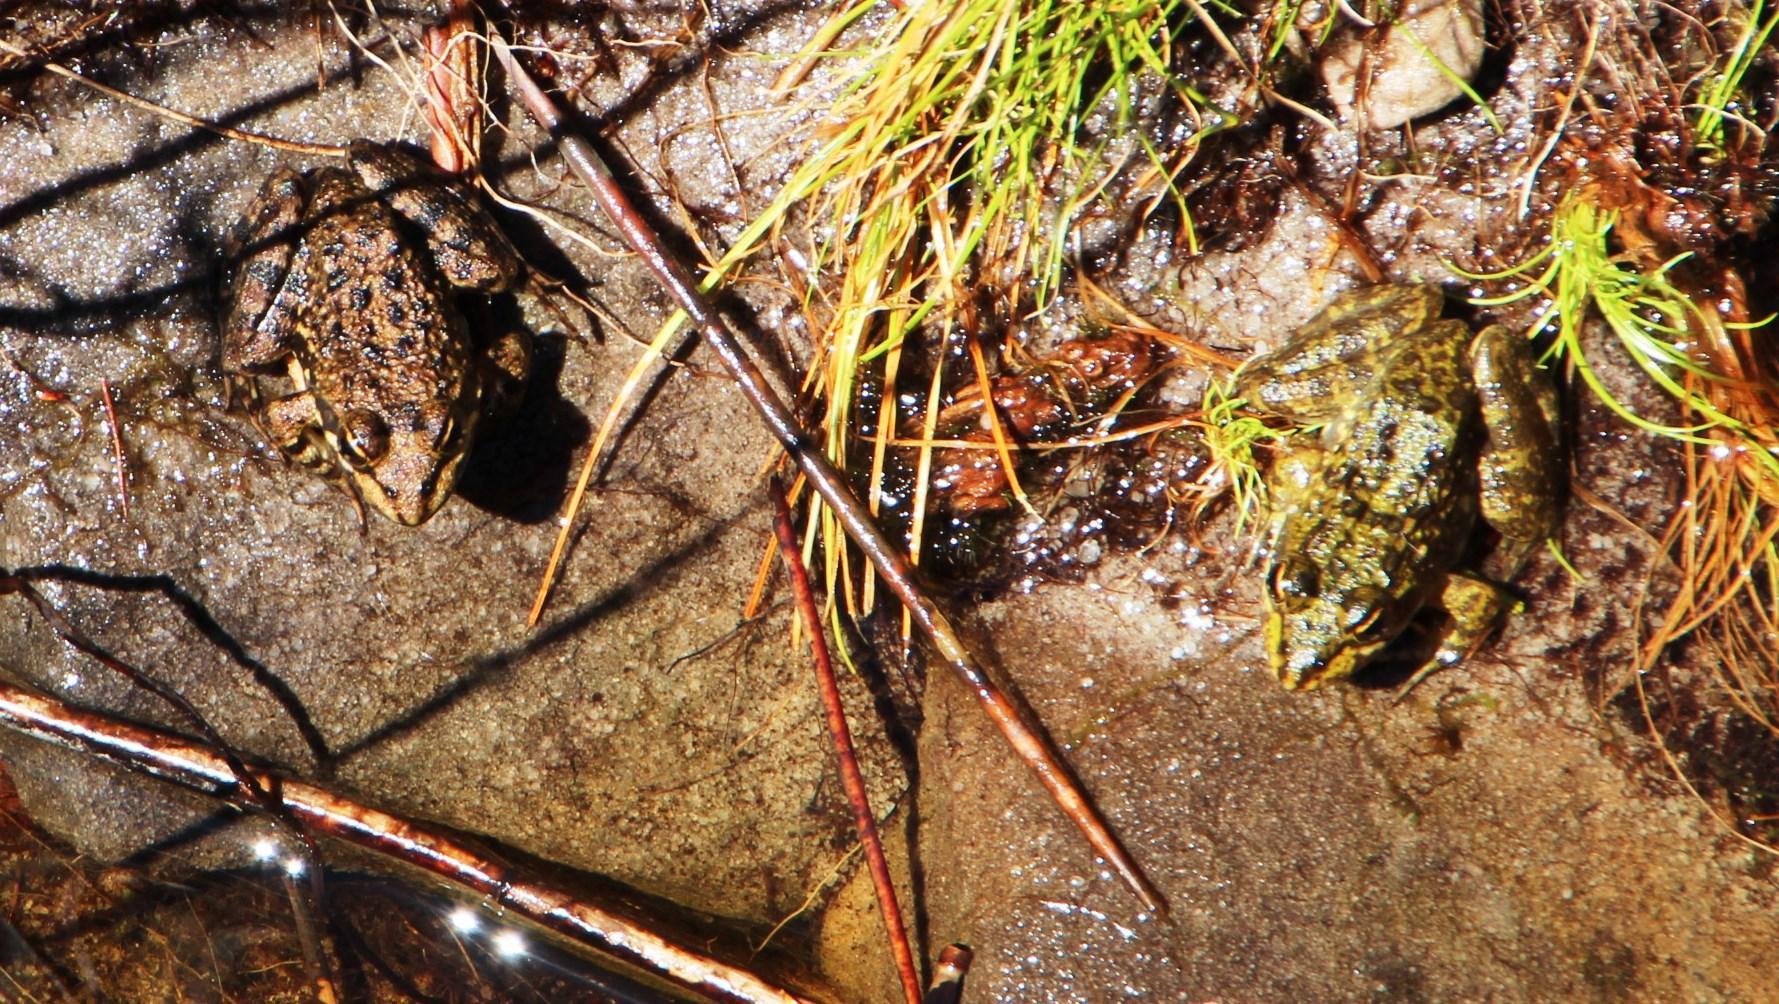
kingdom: Animalia
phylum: Chordata
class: Amphibia
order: Anura
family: Pyxicephalidae
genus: Amietia
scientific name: Amietia fuscigula
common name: Cape rana
